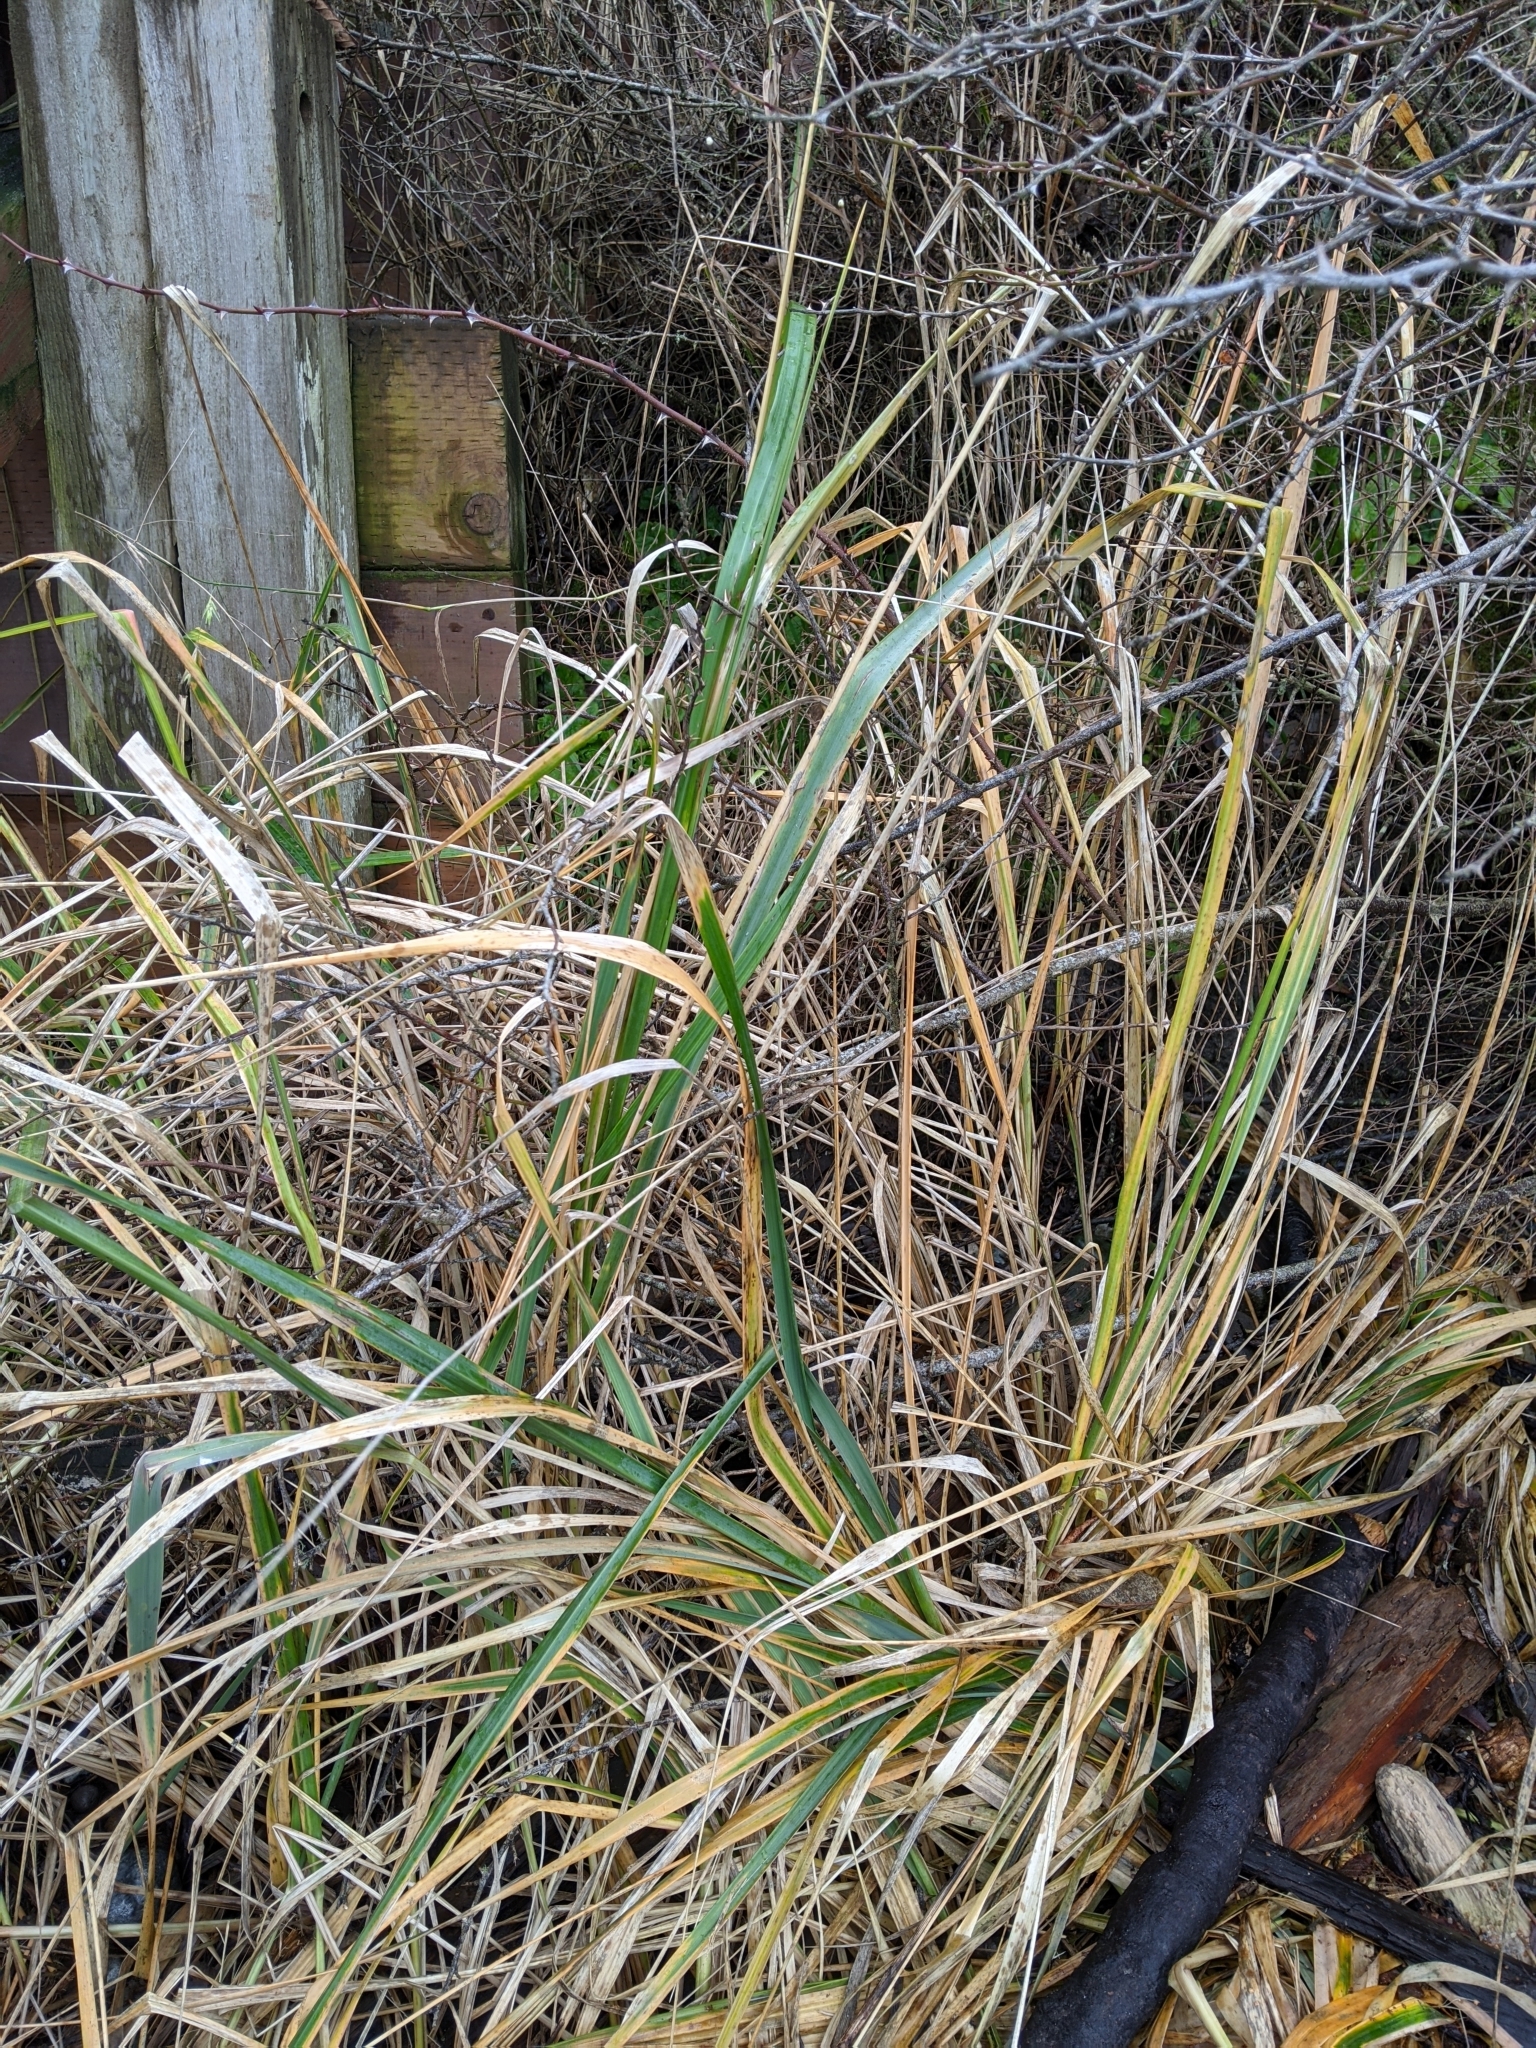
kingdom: Plantae
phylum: Tracheophyta
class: Liliopsida
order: Poales
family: Poaceae
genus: Leymus
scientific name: Leymus mollis
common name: American dune grass
